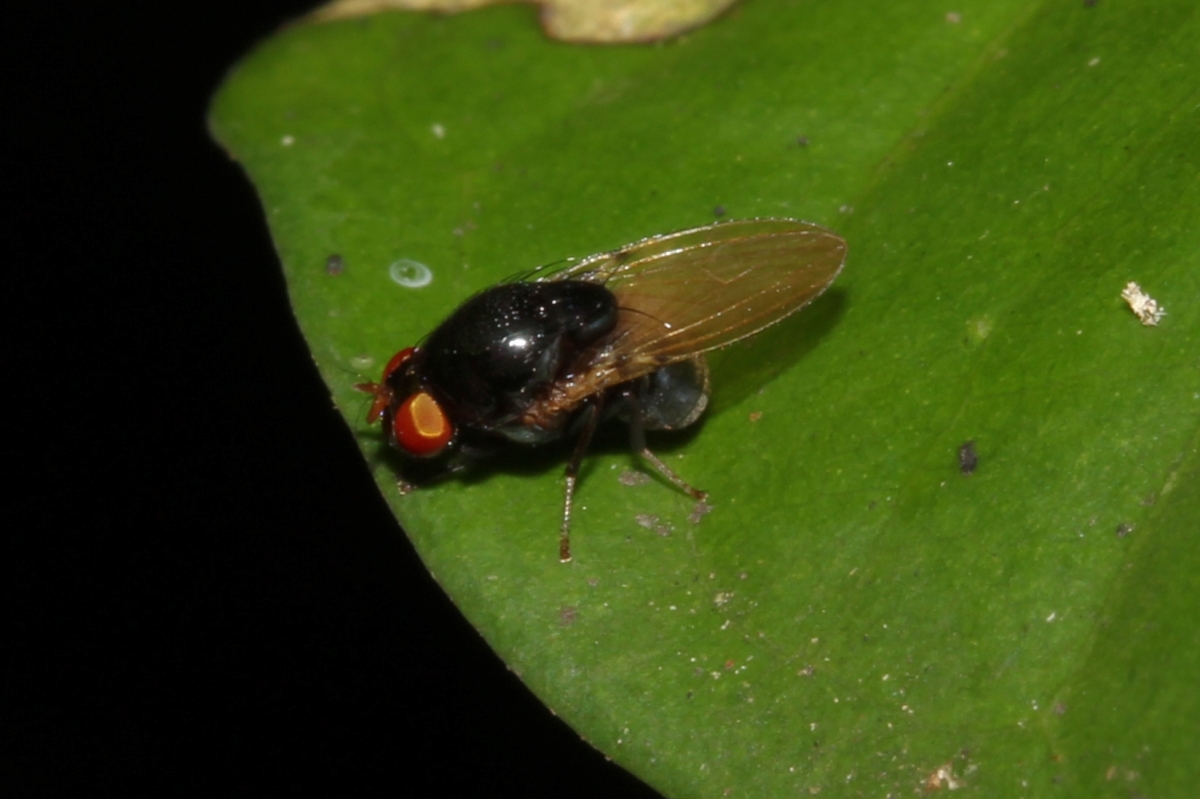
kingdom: Animalia
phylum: Arthropoda
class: Insecta
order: Diptera
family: Lauxaniidae
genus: Xenochaetina
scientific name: Xenochaetina
